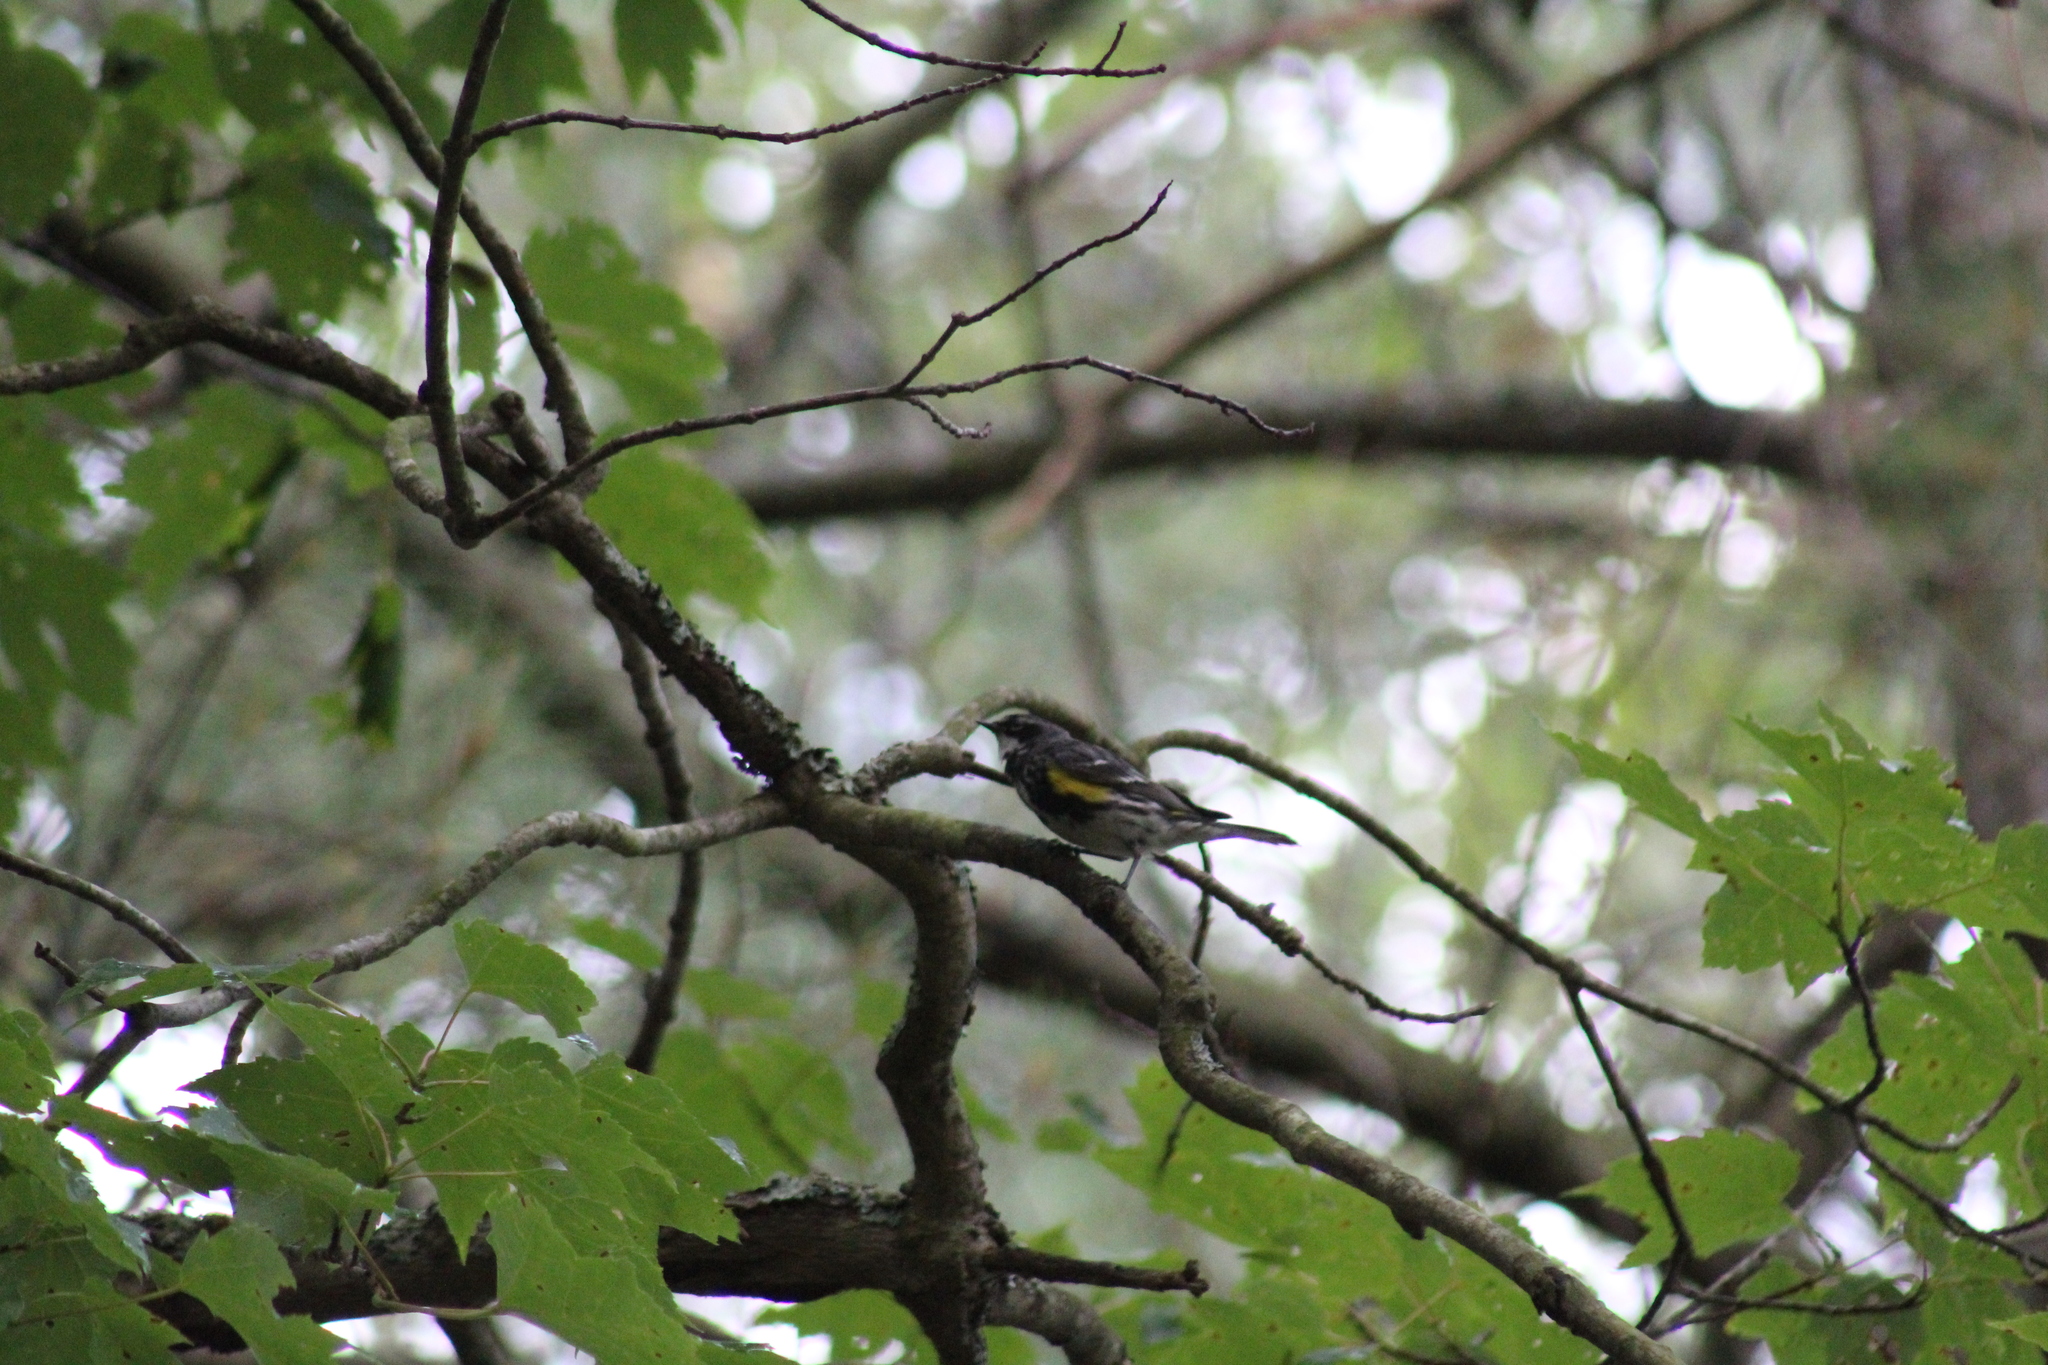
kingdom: Animalia
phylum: Chordata
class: Aves
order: Passeriformes
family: Parulidae
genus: Setophaga
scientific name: Setophaga coronata
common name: Myrtle warbler
